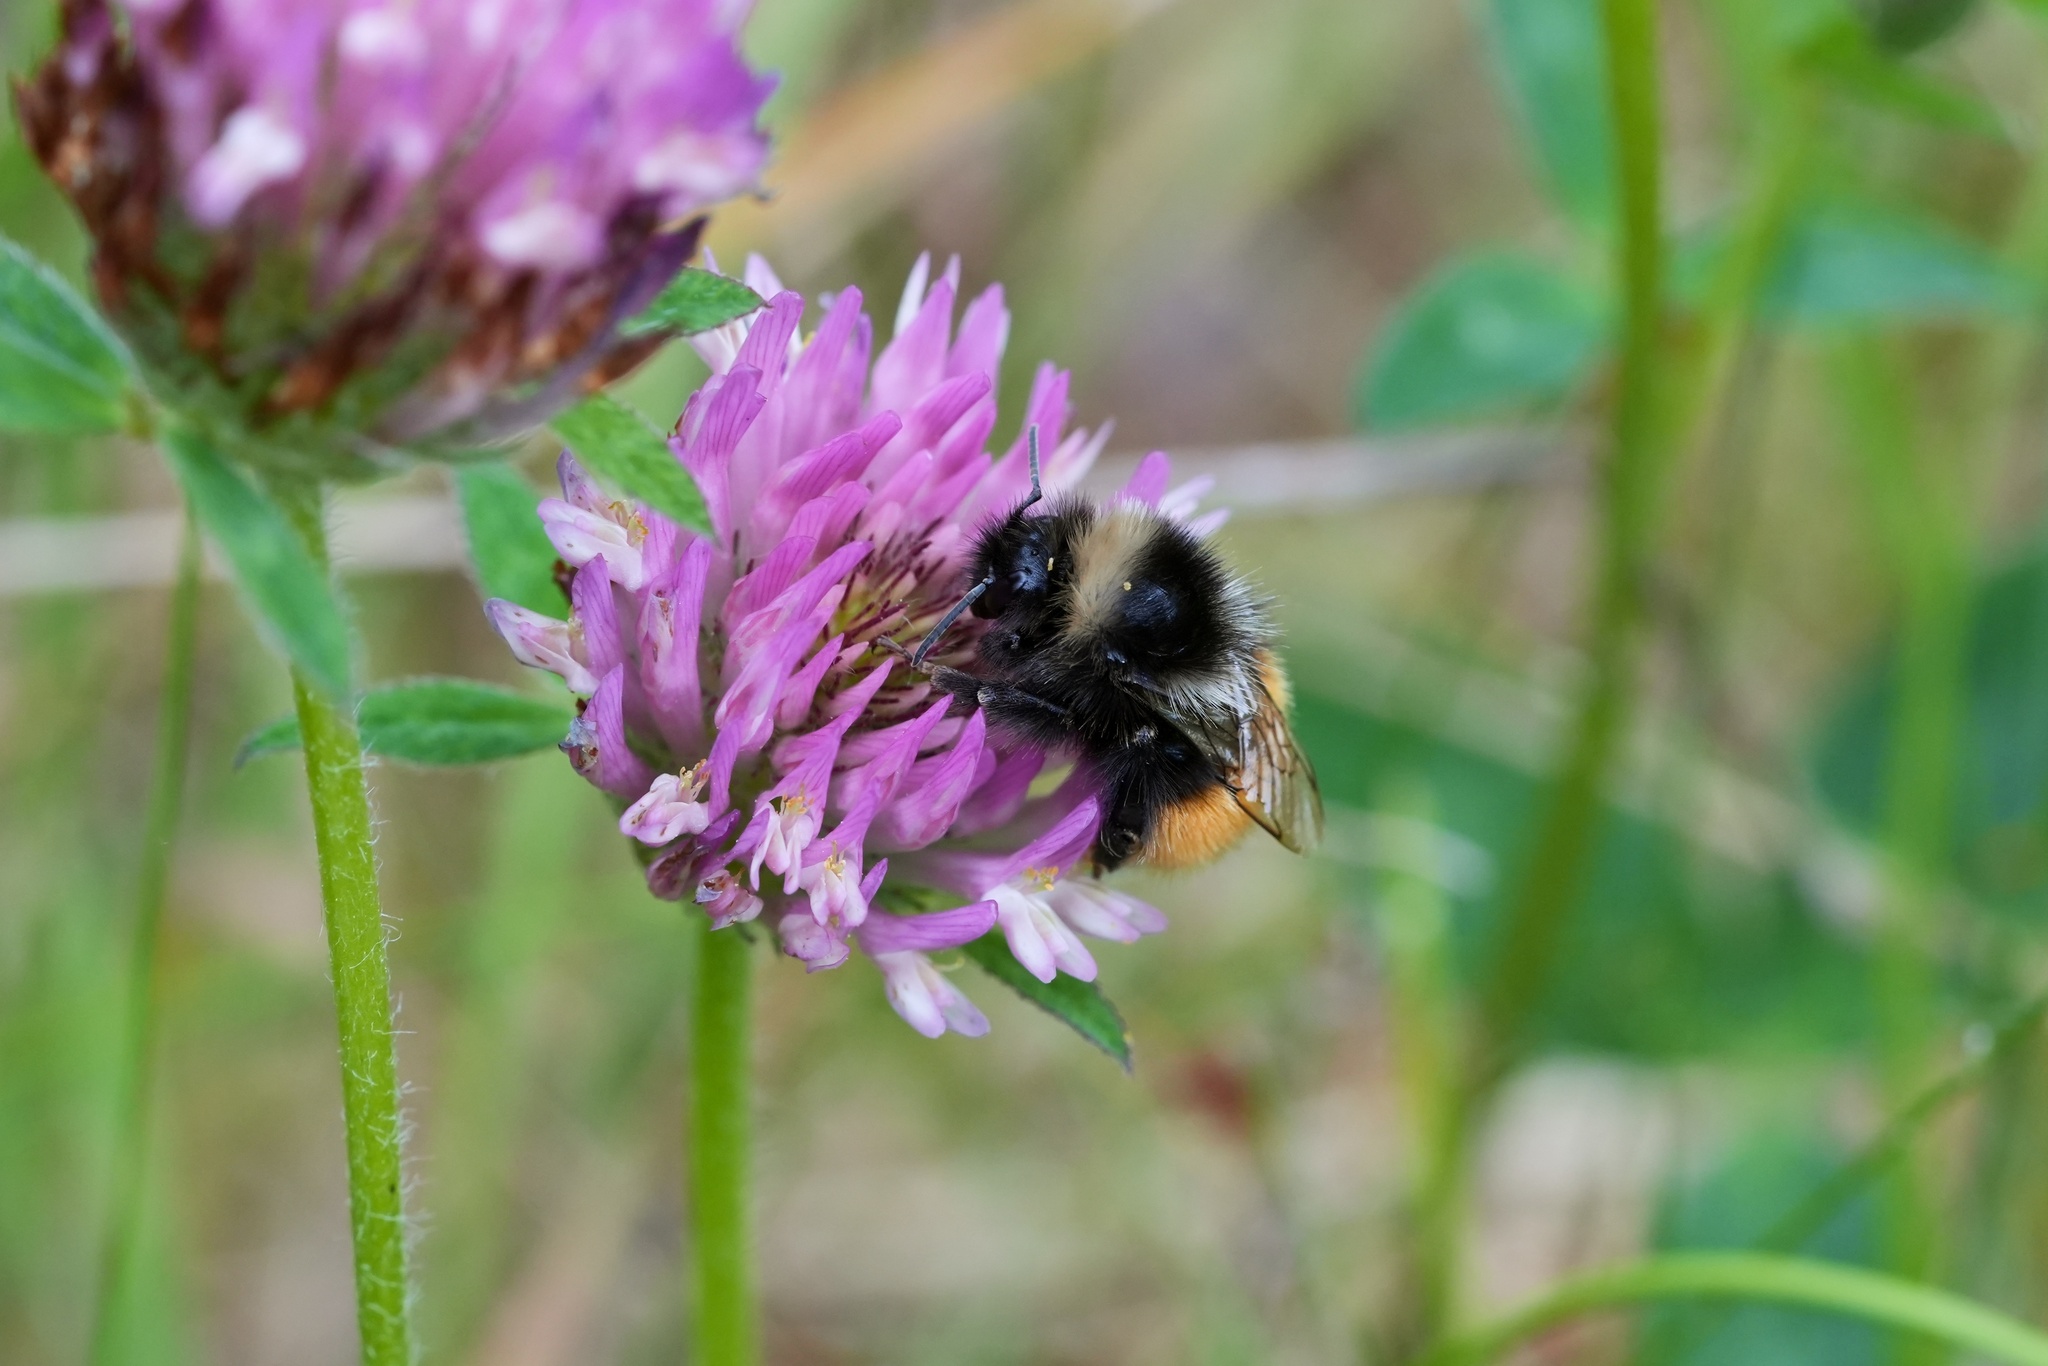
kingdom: Animalia
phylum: Arthropoda
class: Insecta
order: Hymenoptera
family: Apidae
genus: Bombus
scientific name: Bombus monticola
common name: Bilberry humble-bee
